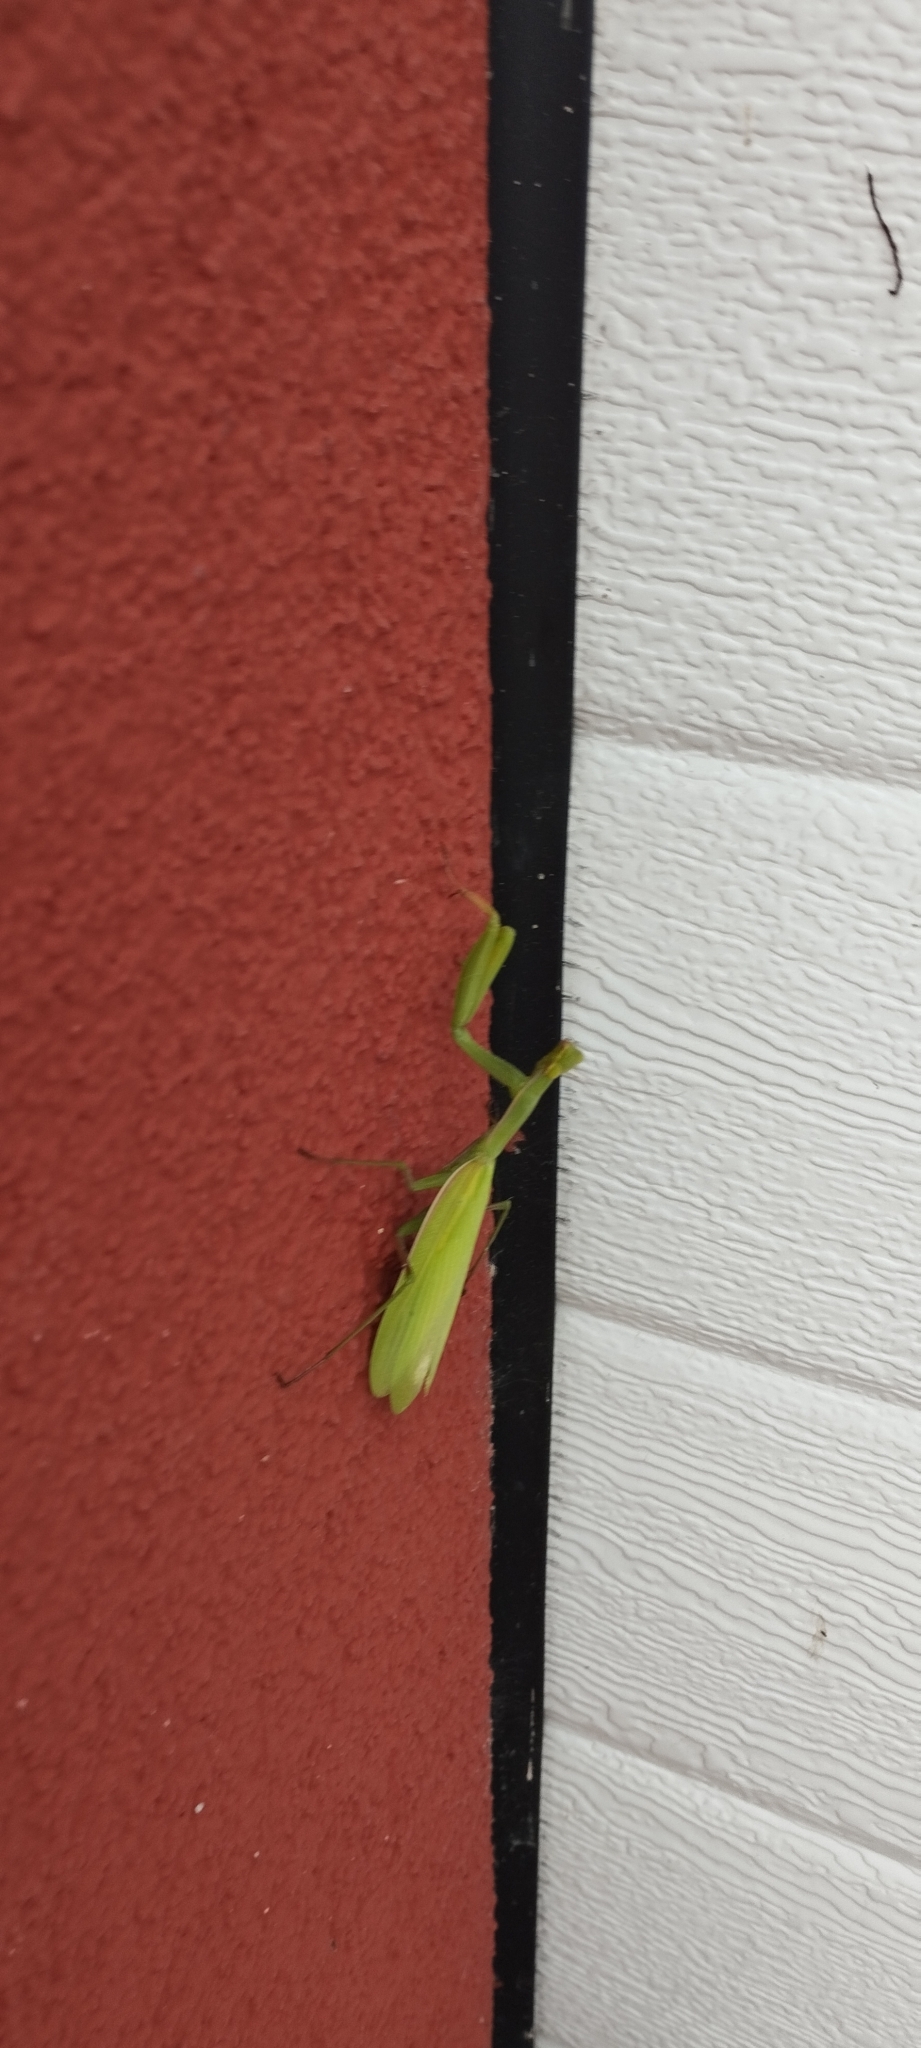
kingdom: Animalia
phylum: Arthropoda
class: Insecta
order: Mantodea
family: Mantidae
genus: Mantis
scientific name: Mantis religiosa
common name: Praying mantis
